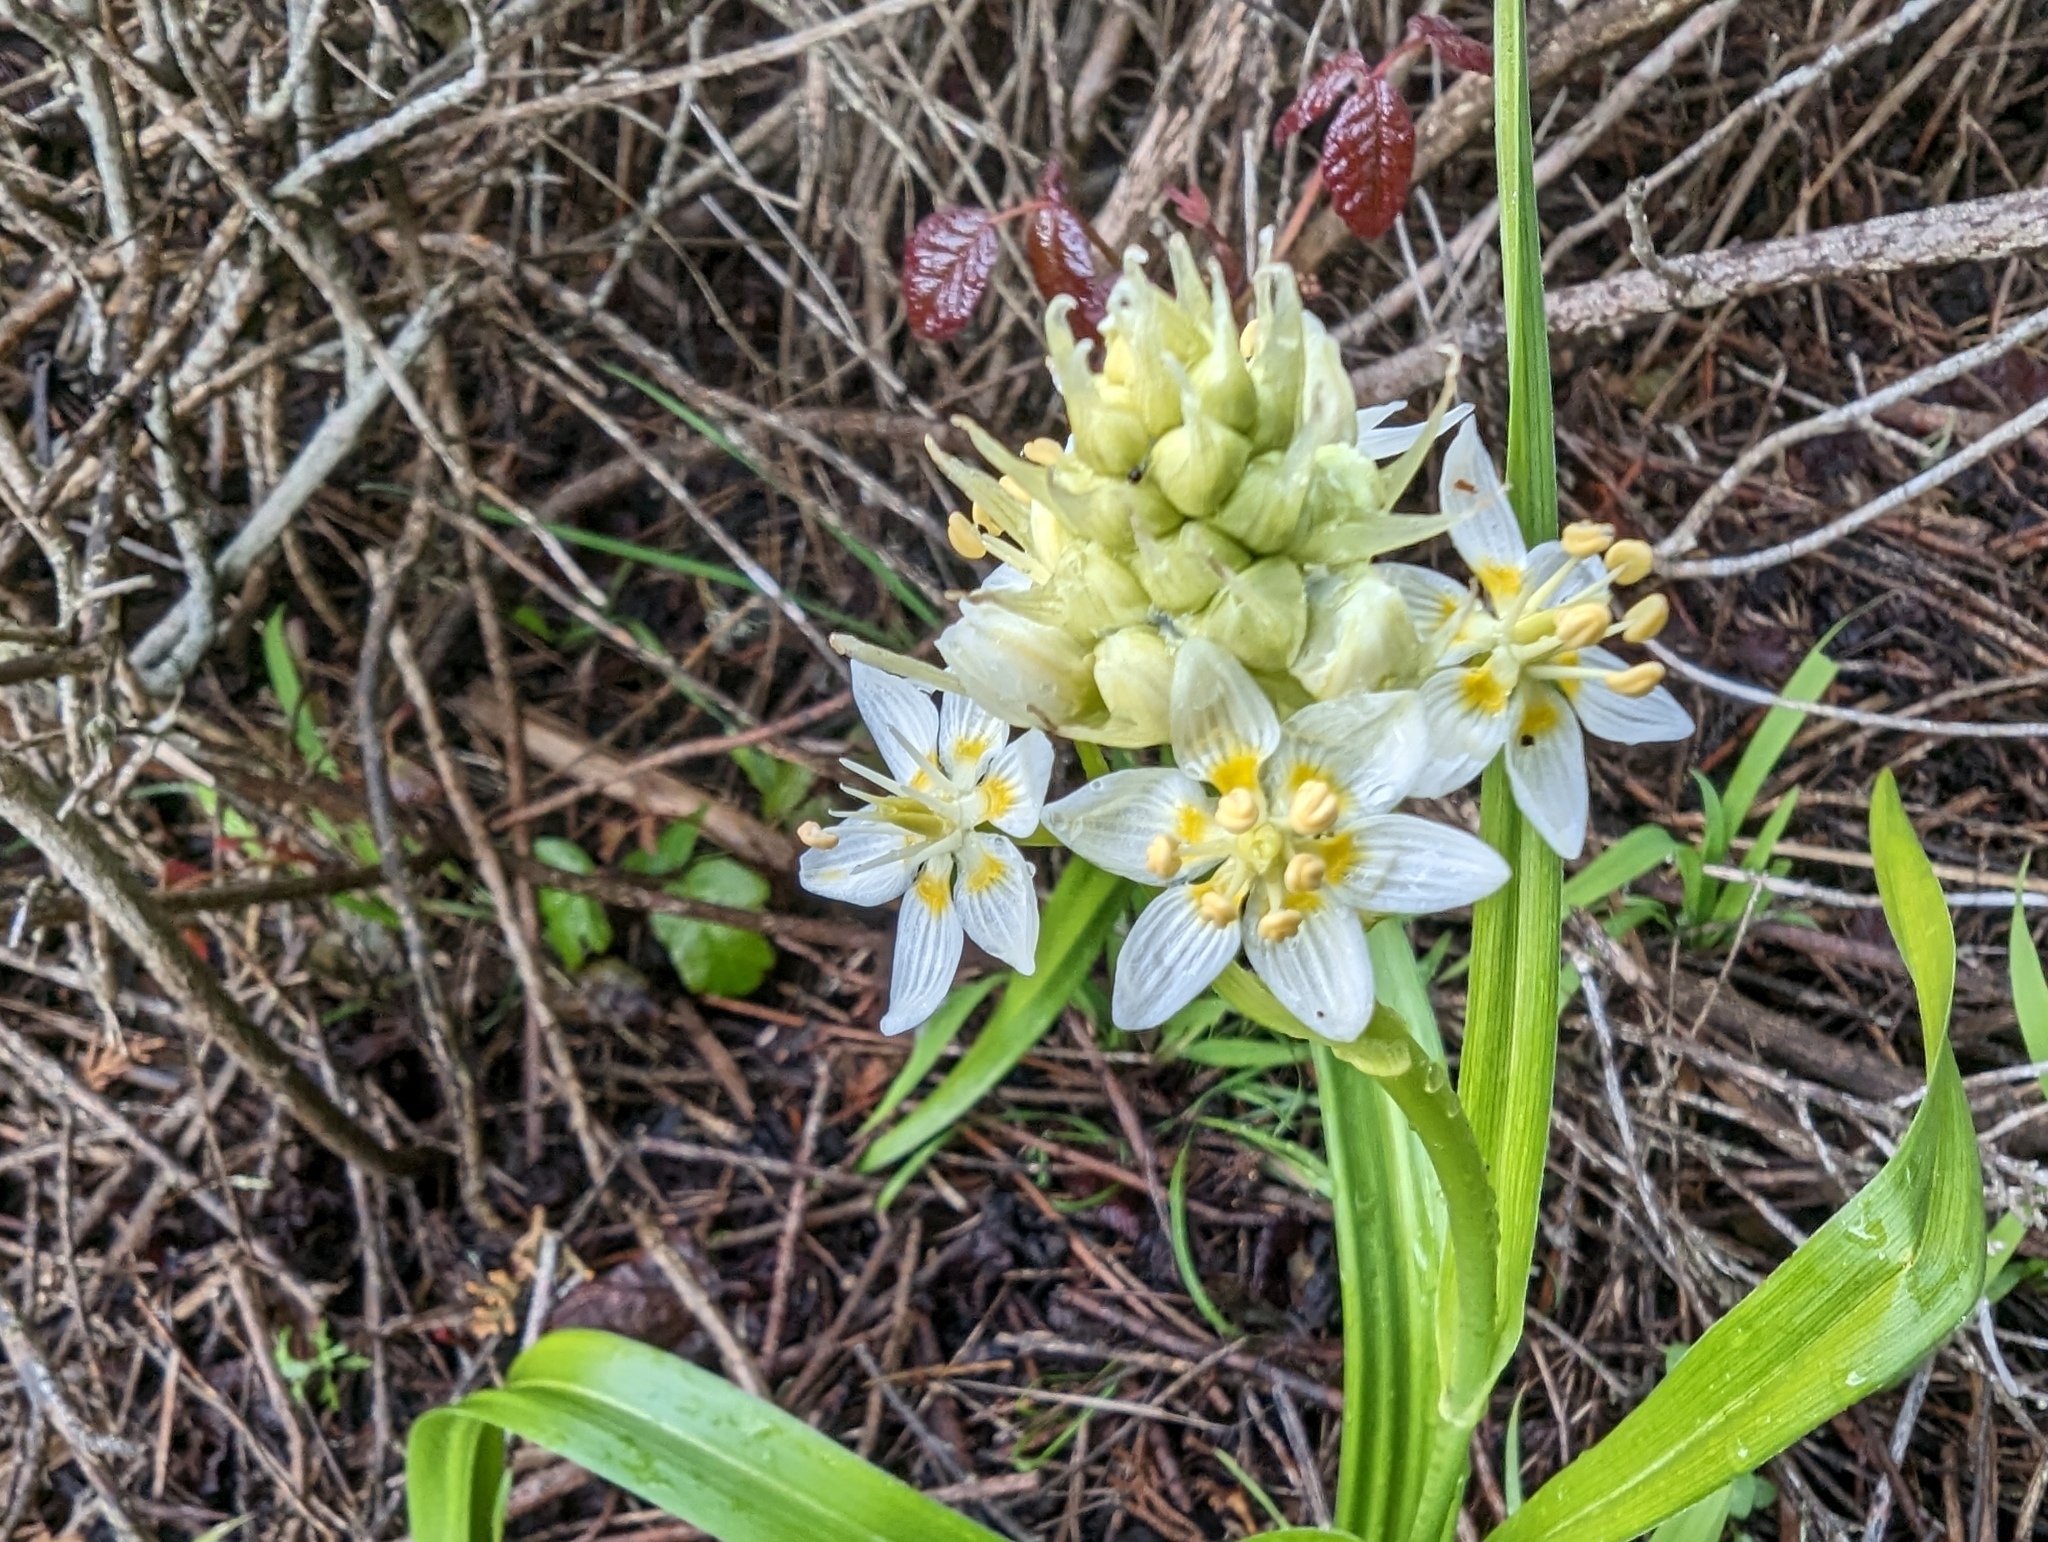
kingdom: Plantae
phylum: Tracheophyta
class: Liliopsida
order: Liliales
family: Melanthiaceae
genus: Toxicoscordion
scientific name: Toxicoscordion fremontii
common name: Fremont's death camas
